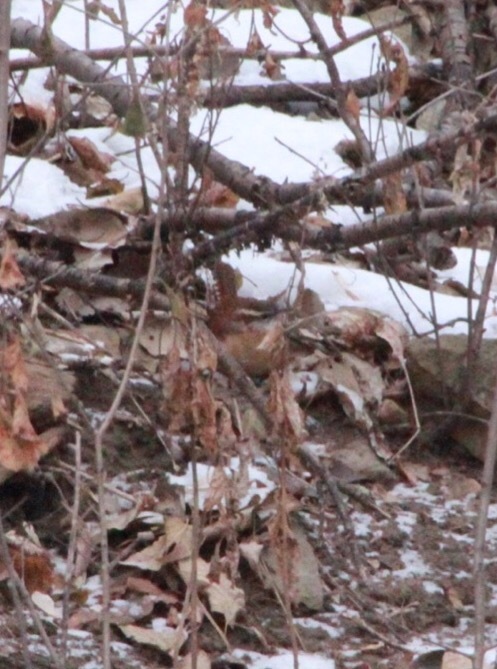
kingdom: Animalia
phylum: Chordata
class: Aves
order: Passeriformes
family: Troglodytidae
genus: Thryothorus
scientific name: Thryothorus ludovicianus
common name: Carolina wren
